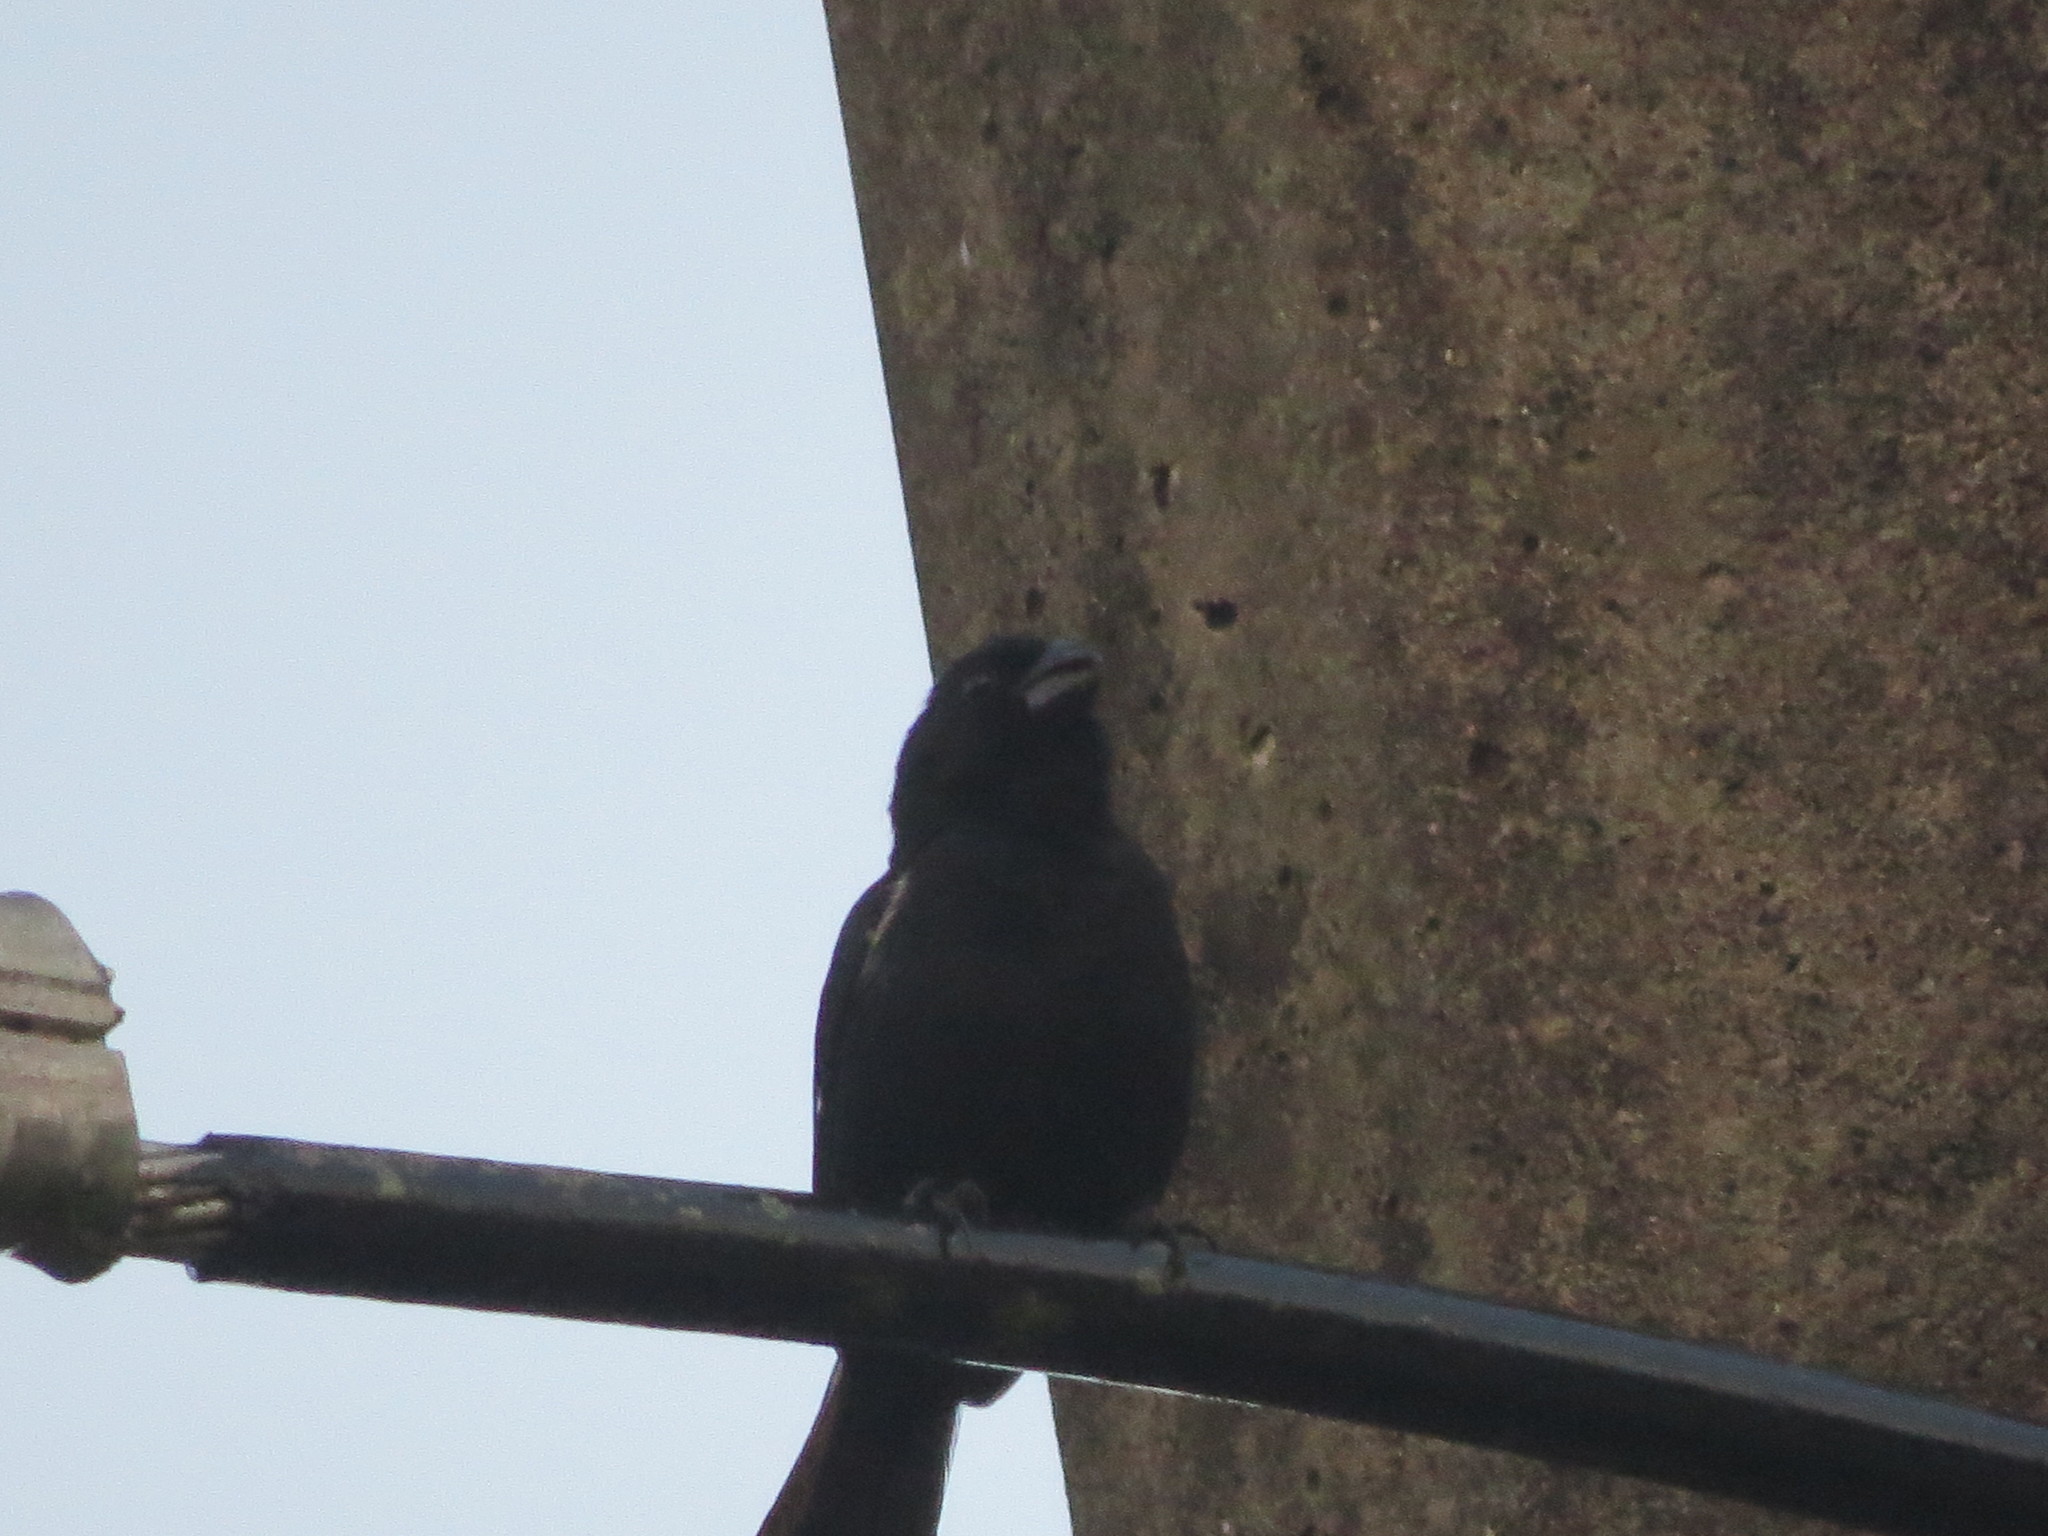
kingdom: Animalia
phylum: Chordata
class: Aves
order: Passeriformes
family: Thraupidae
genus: Sporophila
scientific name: Sporophila corvina
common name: Variable seedeater
